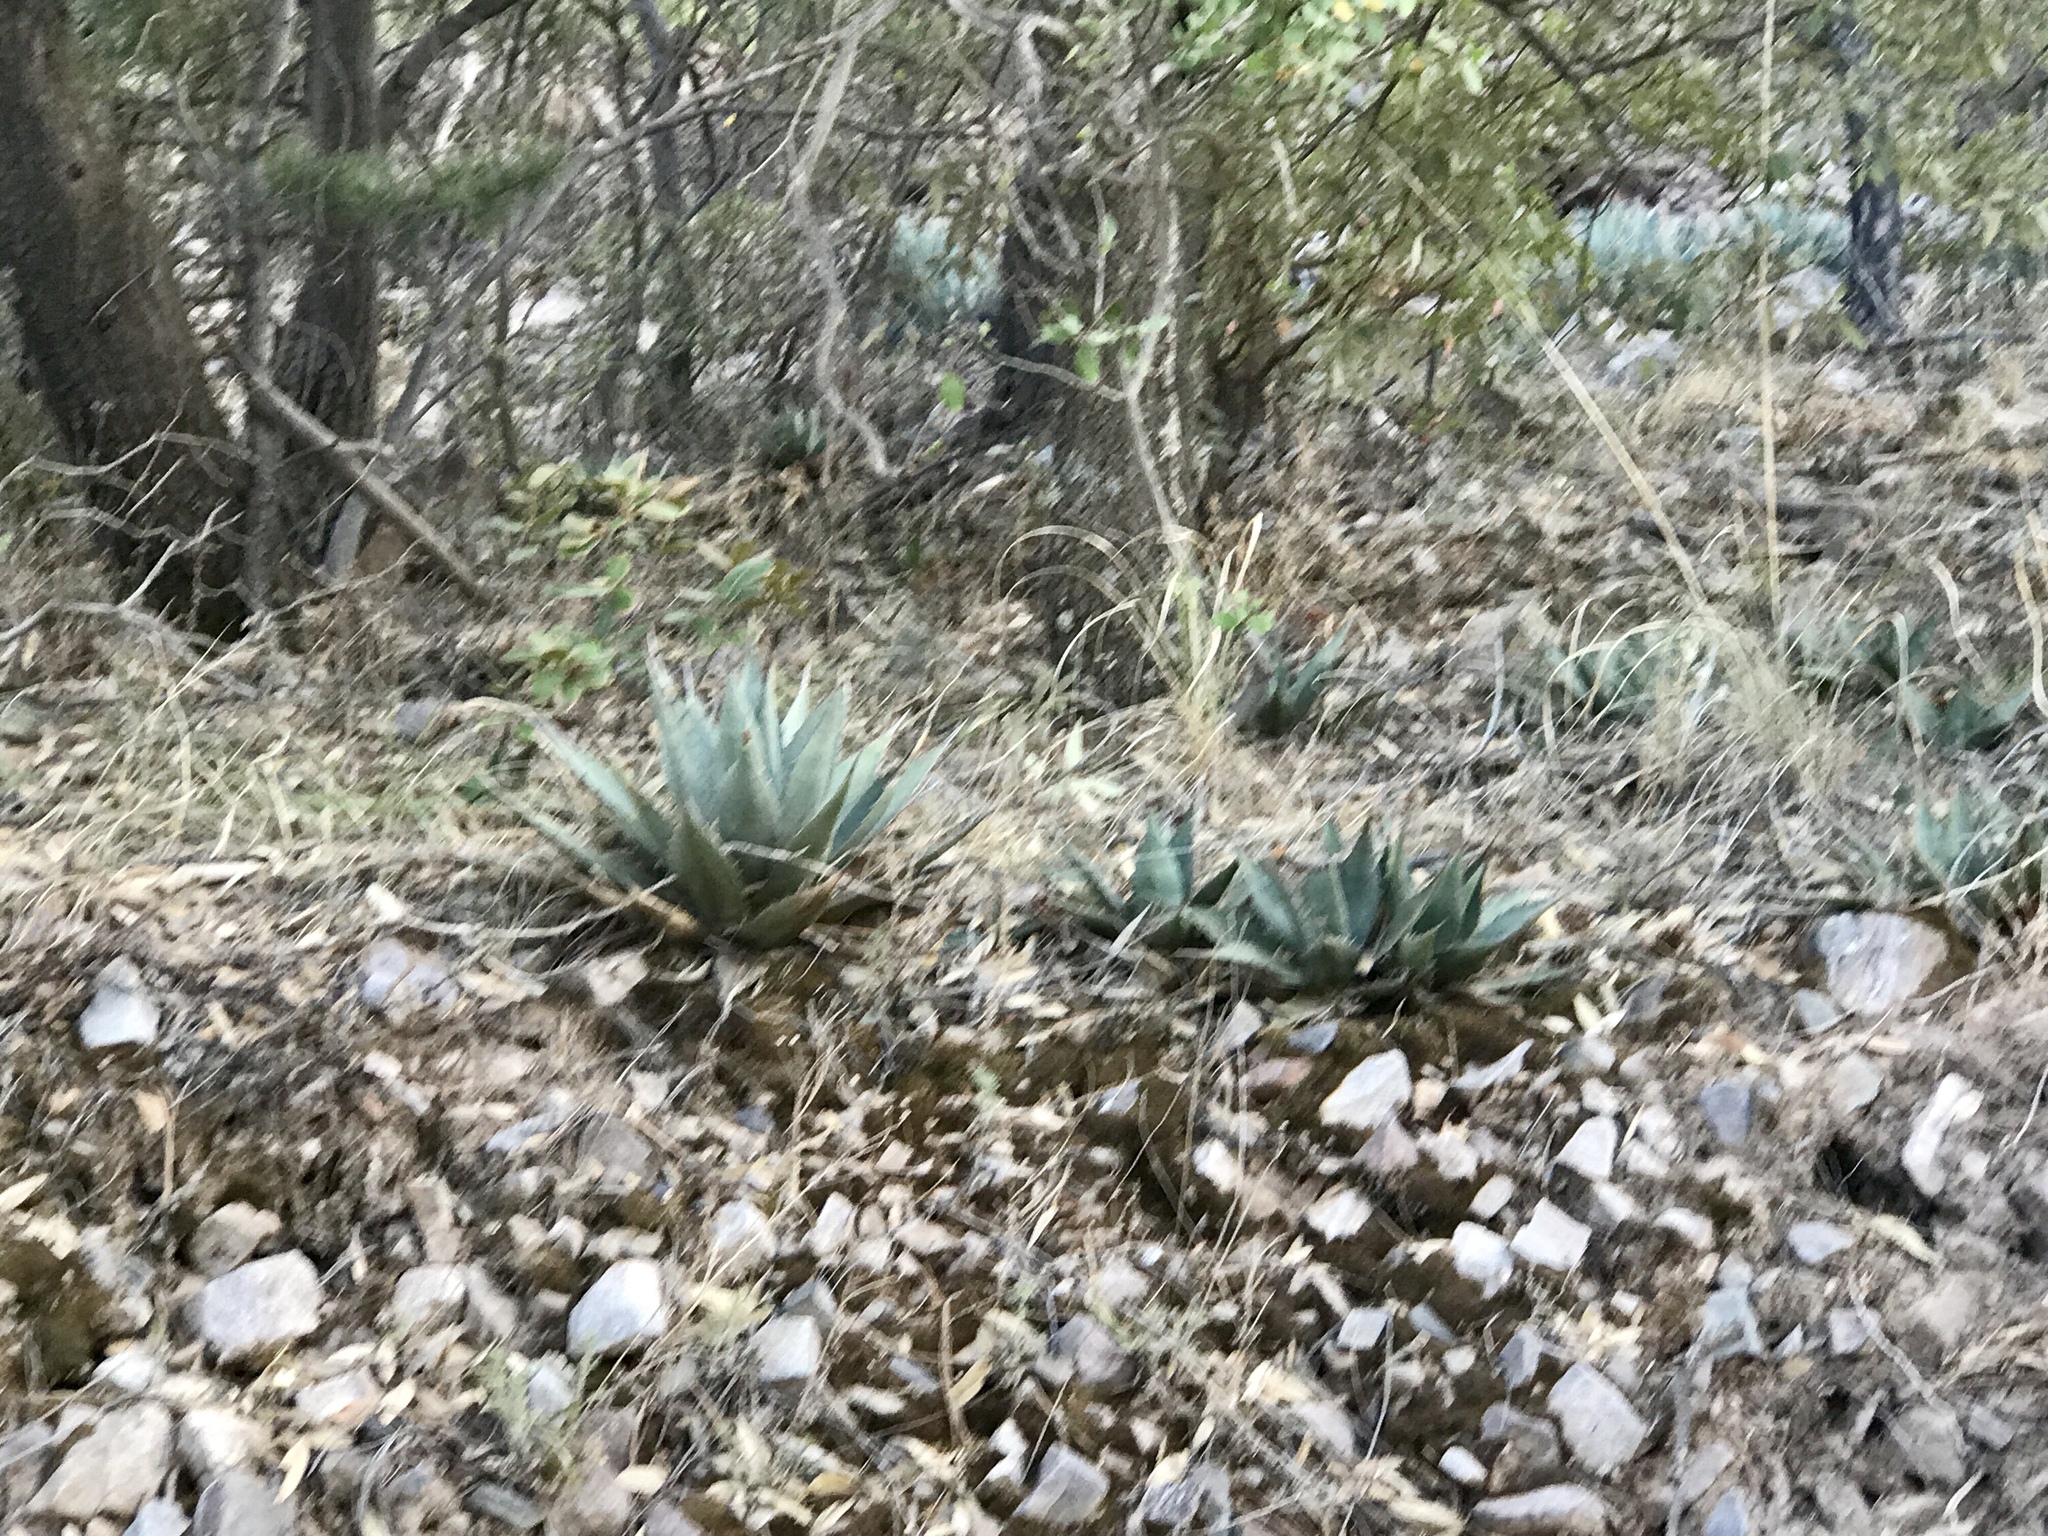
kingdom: Plantae
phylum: Tracheophyta
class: Liliopsida
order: Asparagales
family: Asparagaceae
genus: Agave
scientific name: Agave parryi
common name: Parry's agave
